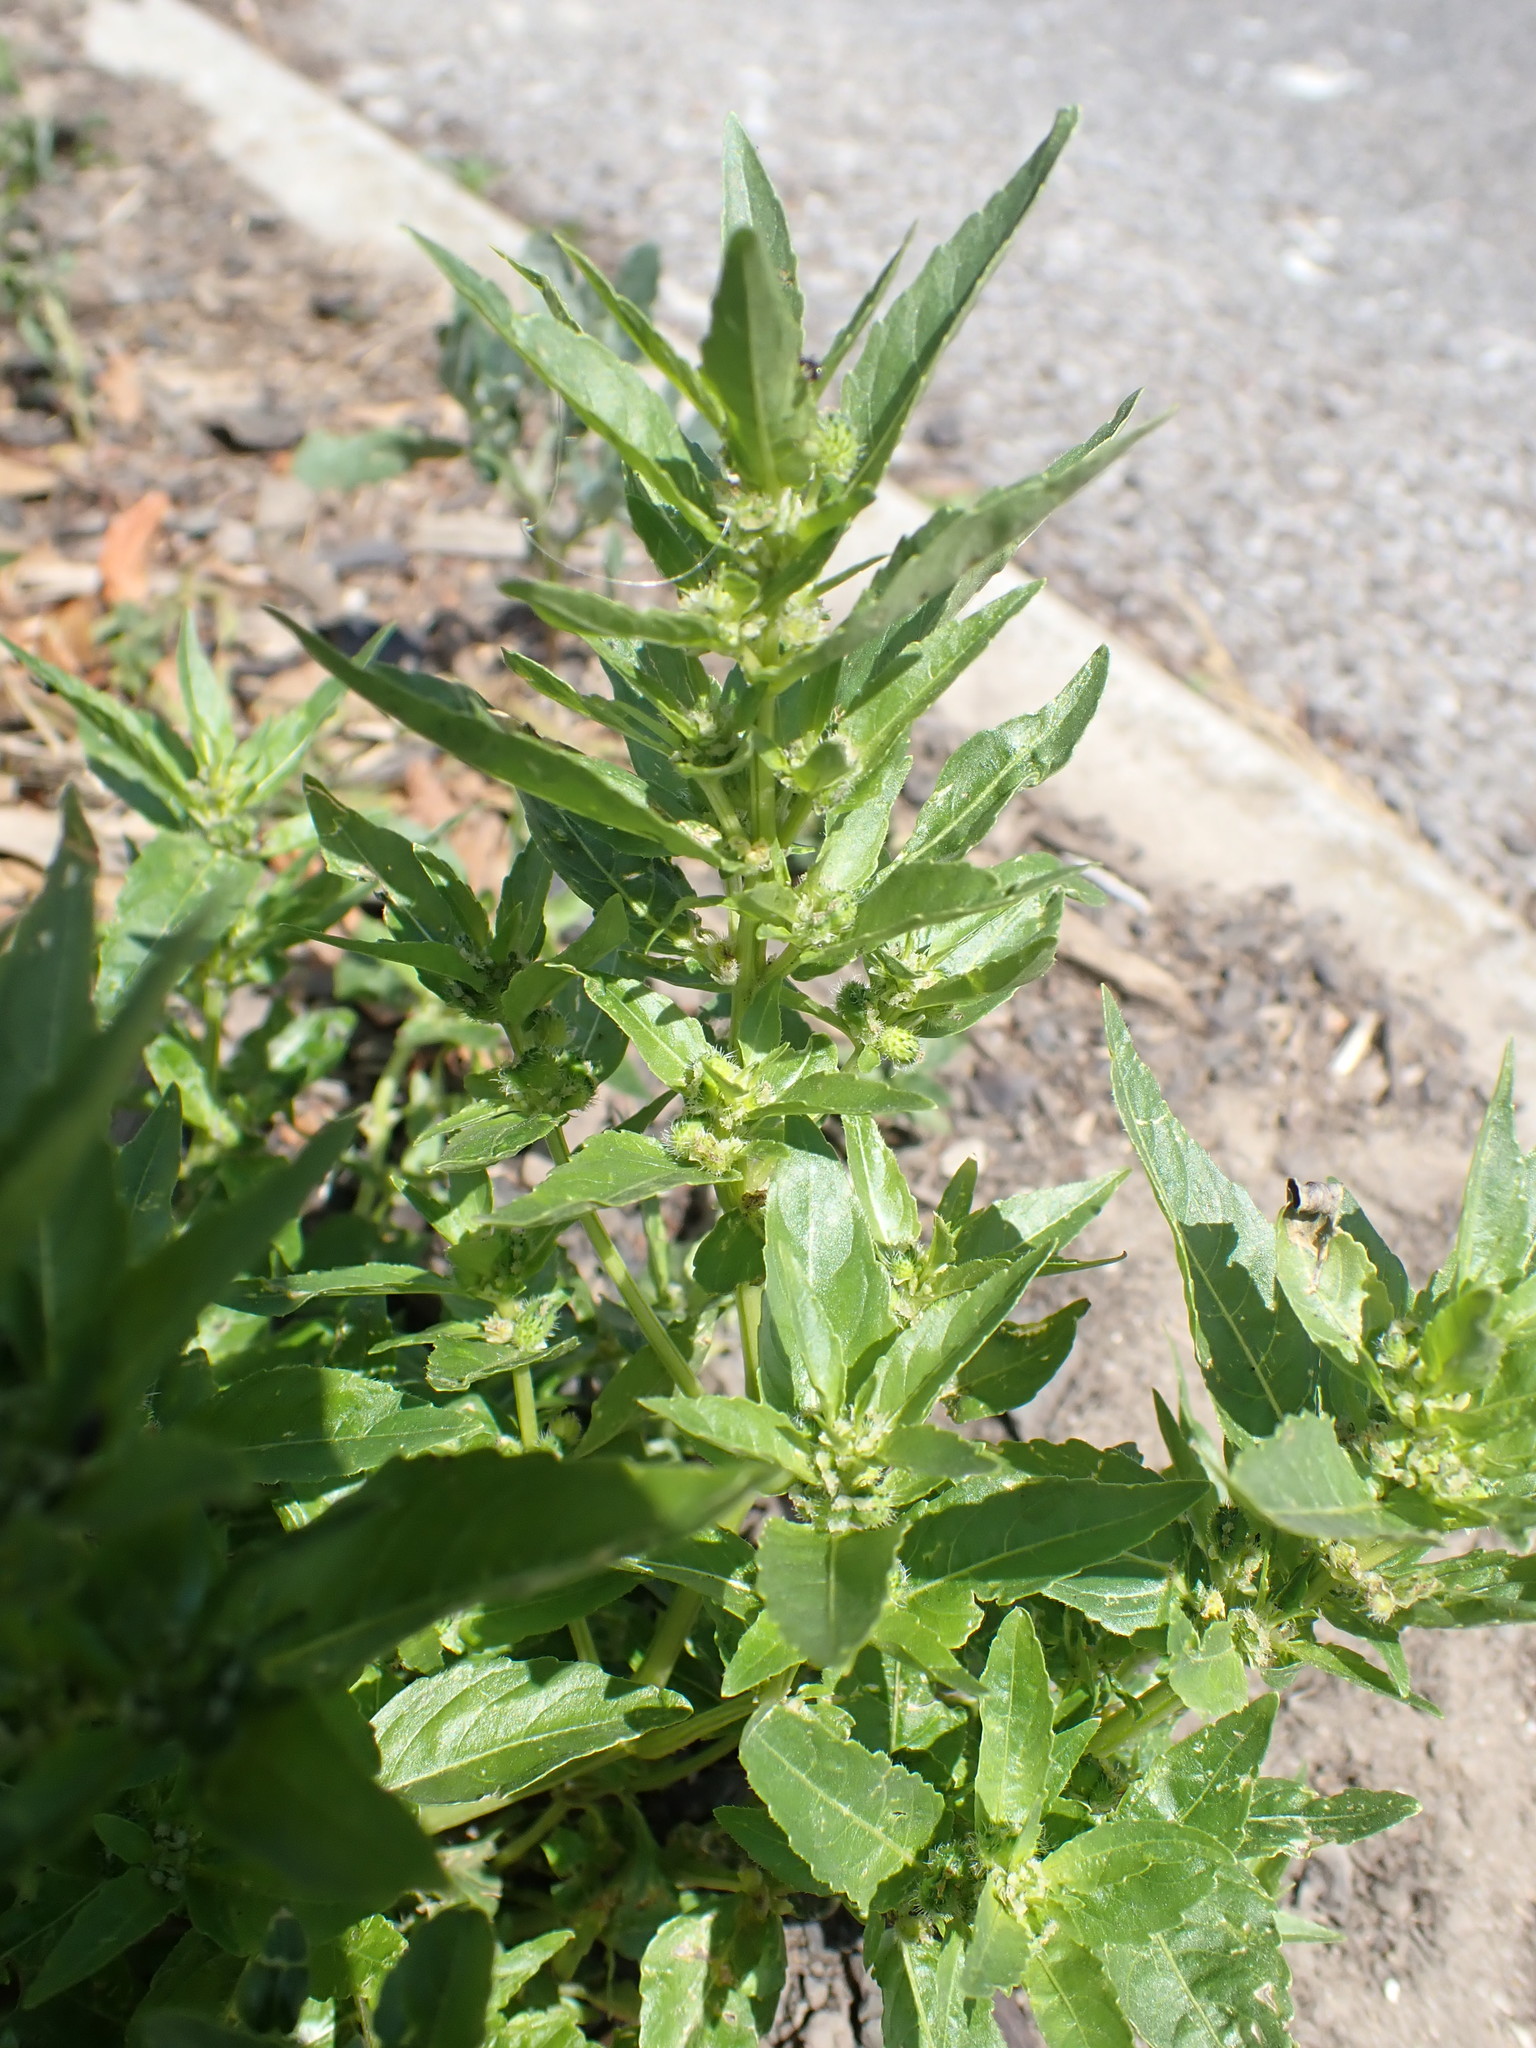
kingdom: Plantae
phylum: Tracheophyta
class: Magnoliopsida
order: Malpighiales
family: Euphorbiaceae
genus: Mercurialis
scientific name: Mercurialis annua
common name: Annual mercury
